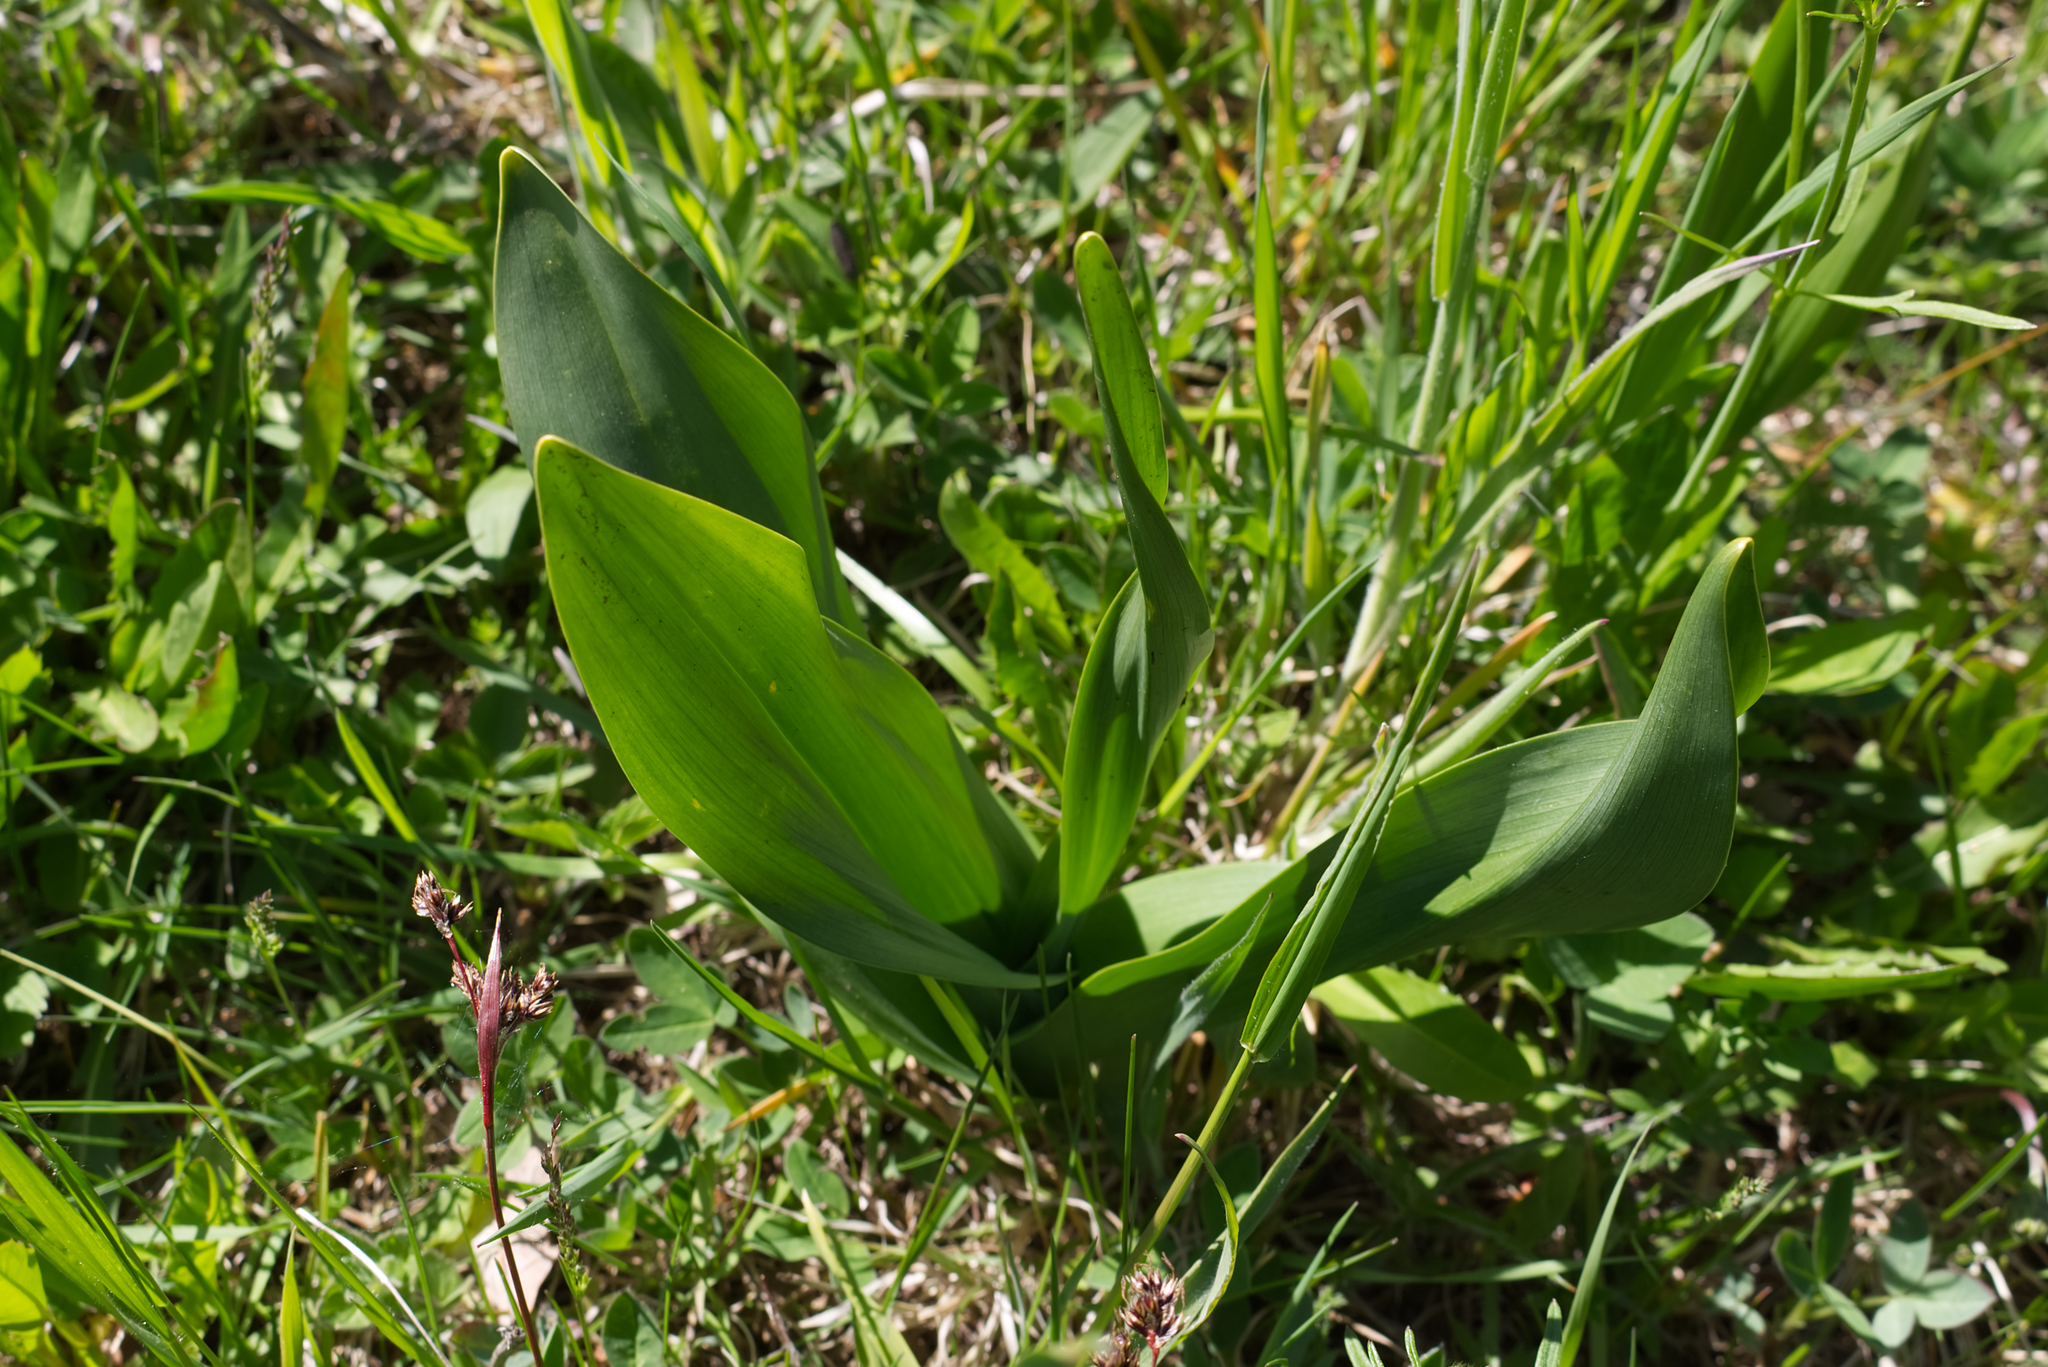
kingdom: Plantae
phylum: Tracheophyta
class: Liliopsida
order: Liliales
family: Colchicaceae
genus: Colchicum
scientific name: Colchicum autumnale
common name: Autumn crocus
